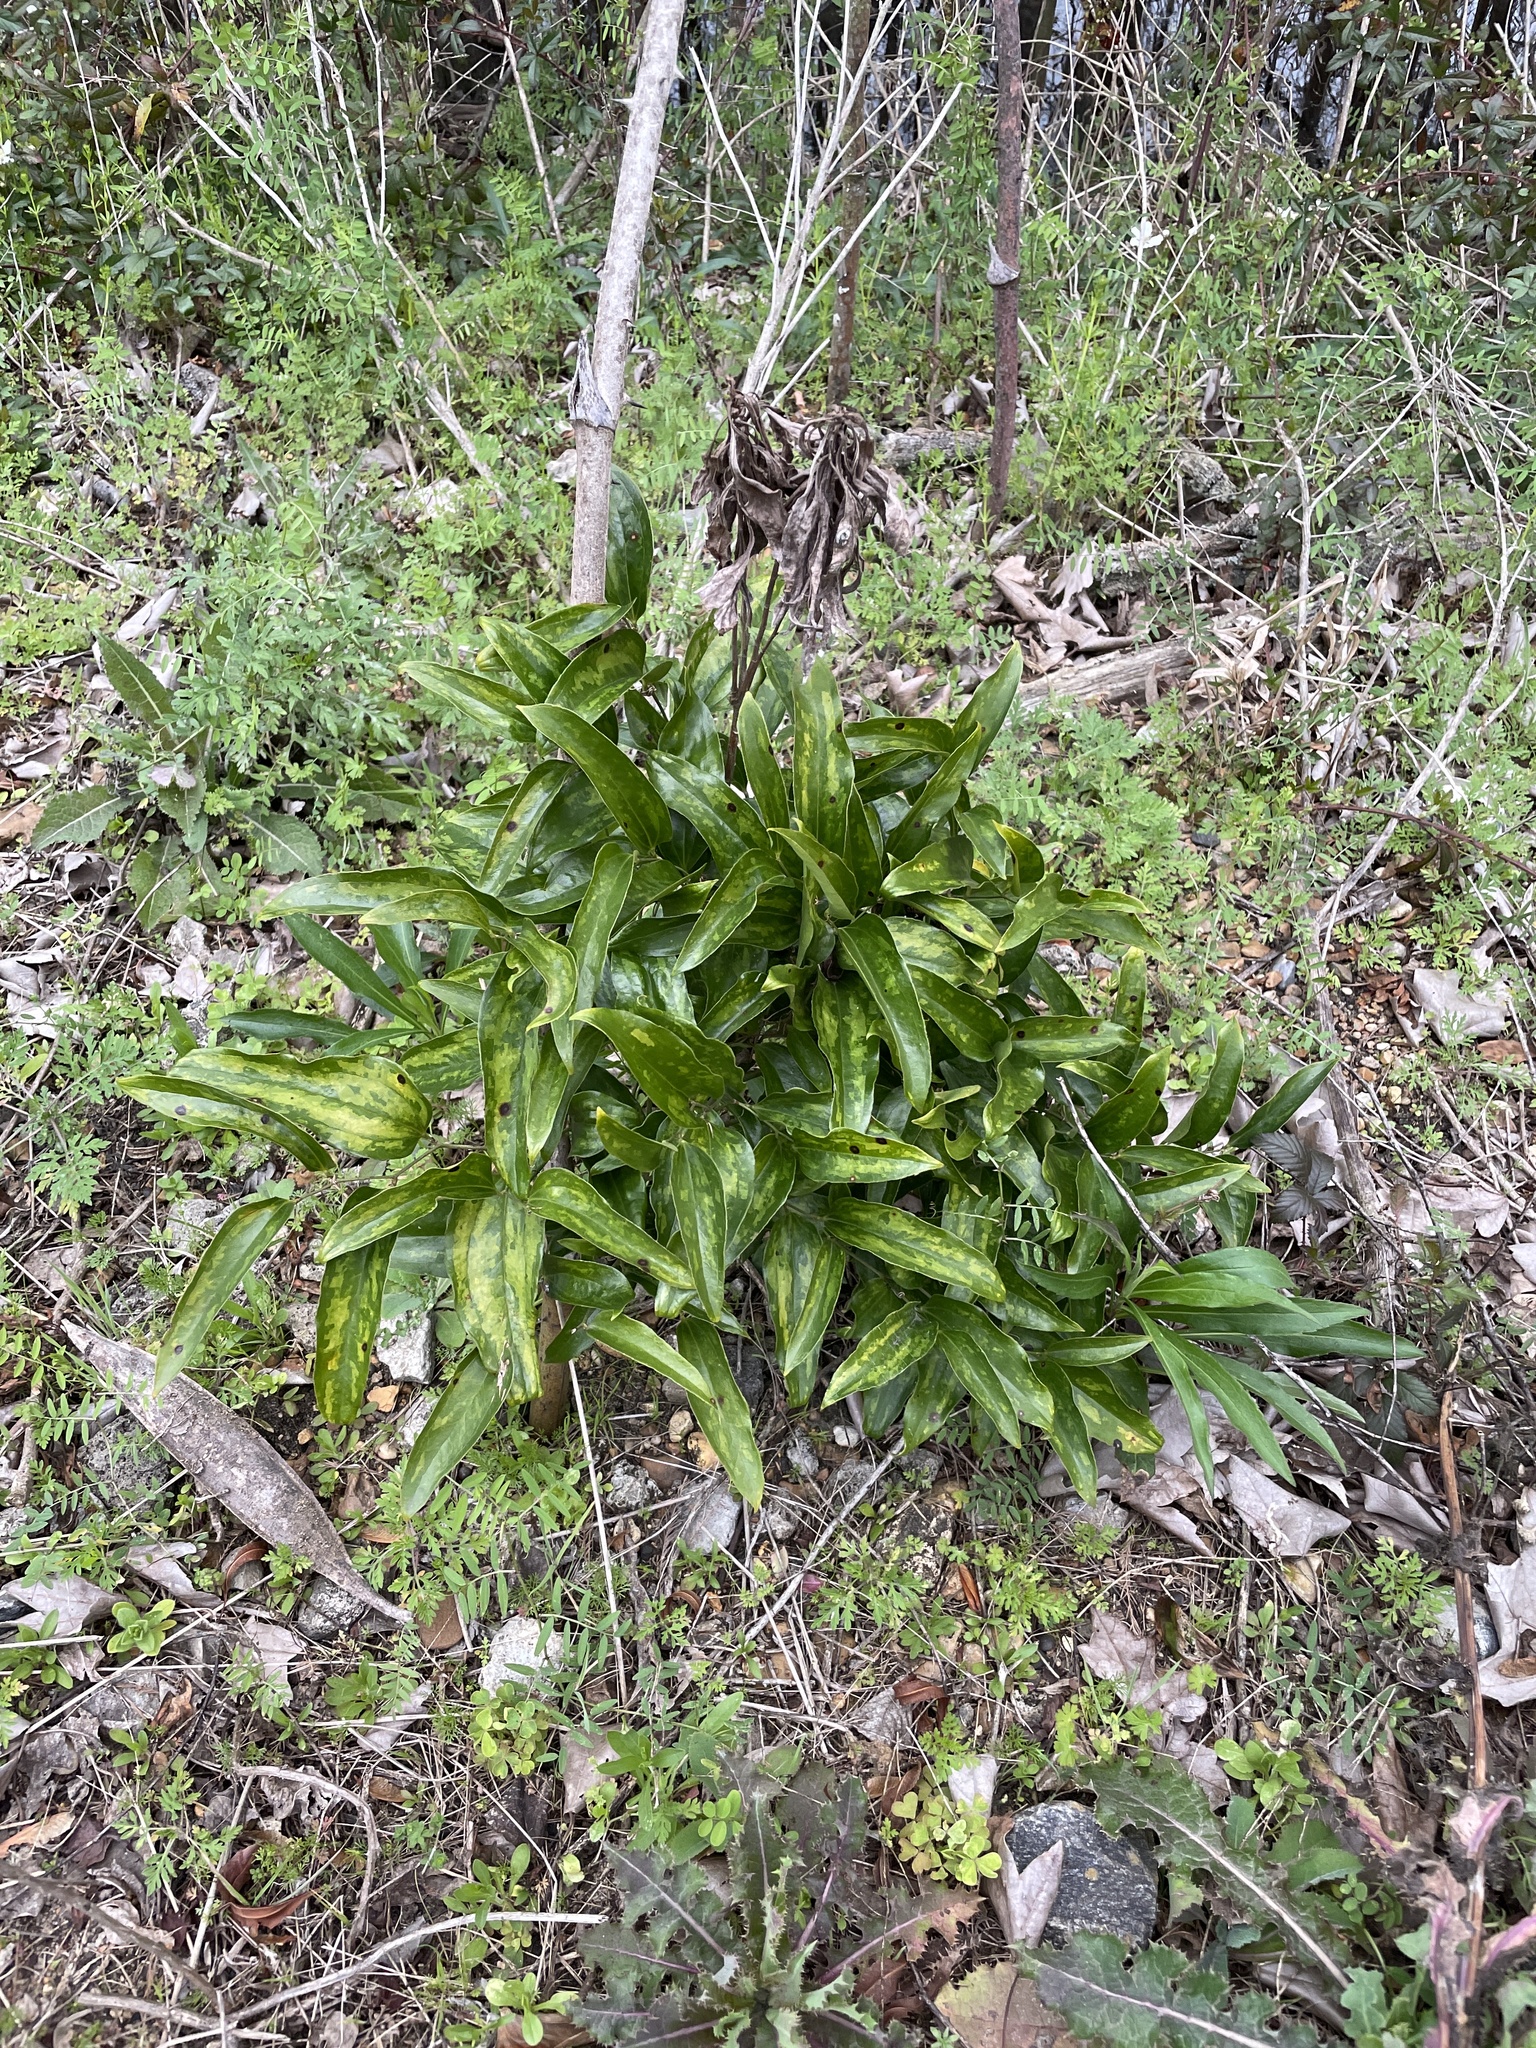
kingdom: Plantae
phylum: Tracheophyta
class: Liliopsida
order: Liliales
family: Smilacaceae
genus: Smilax
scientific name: Smilax maritima
